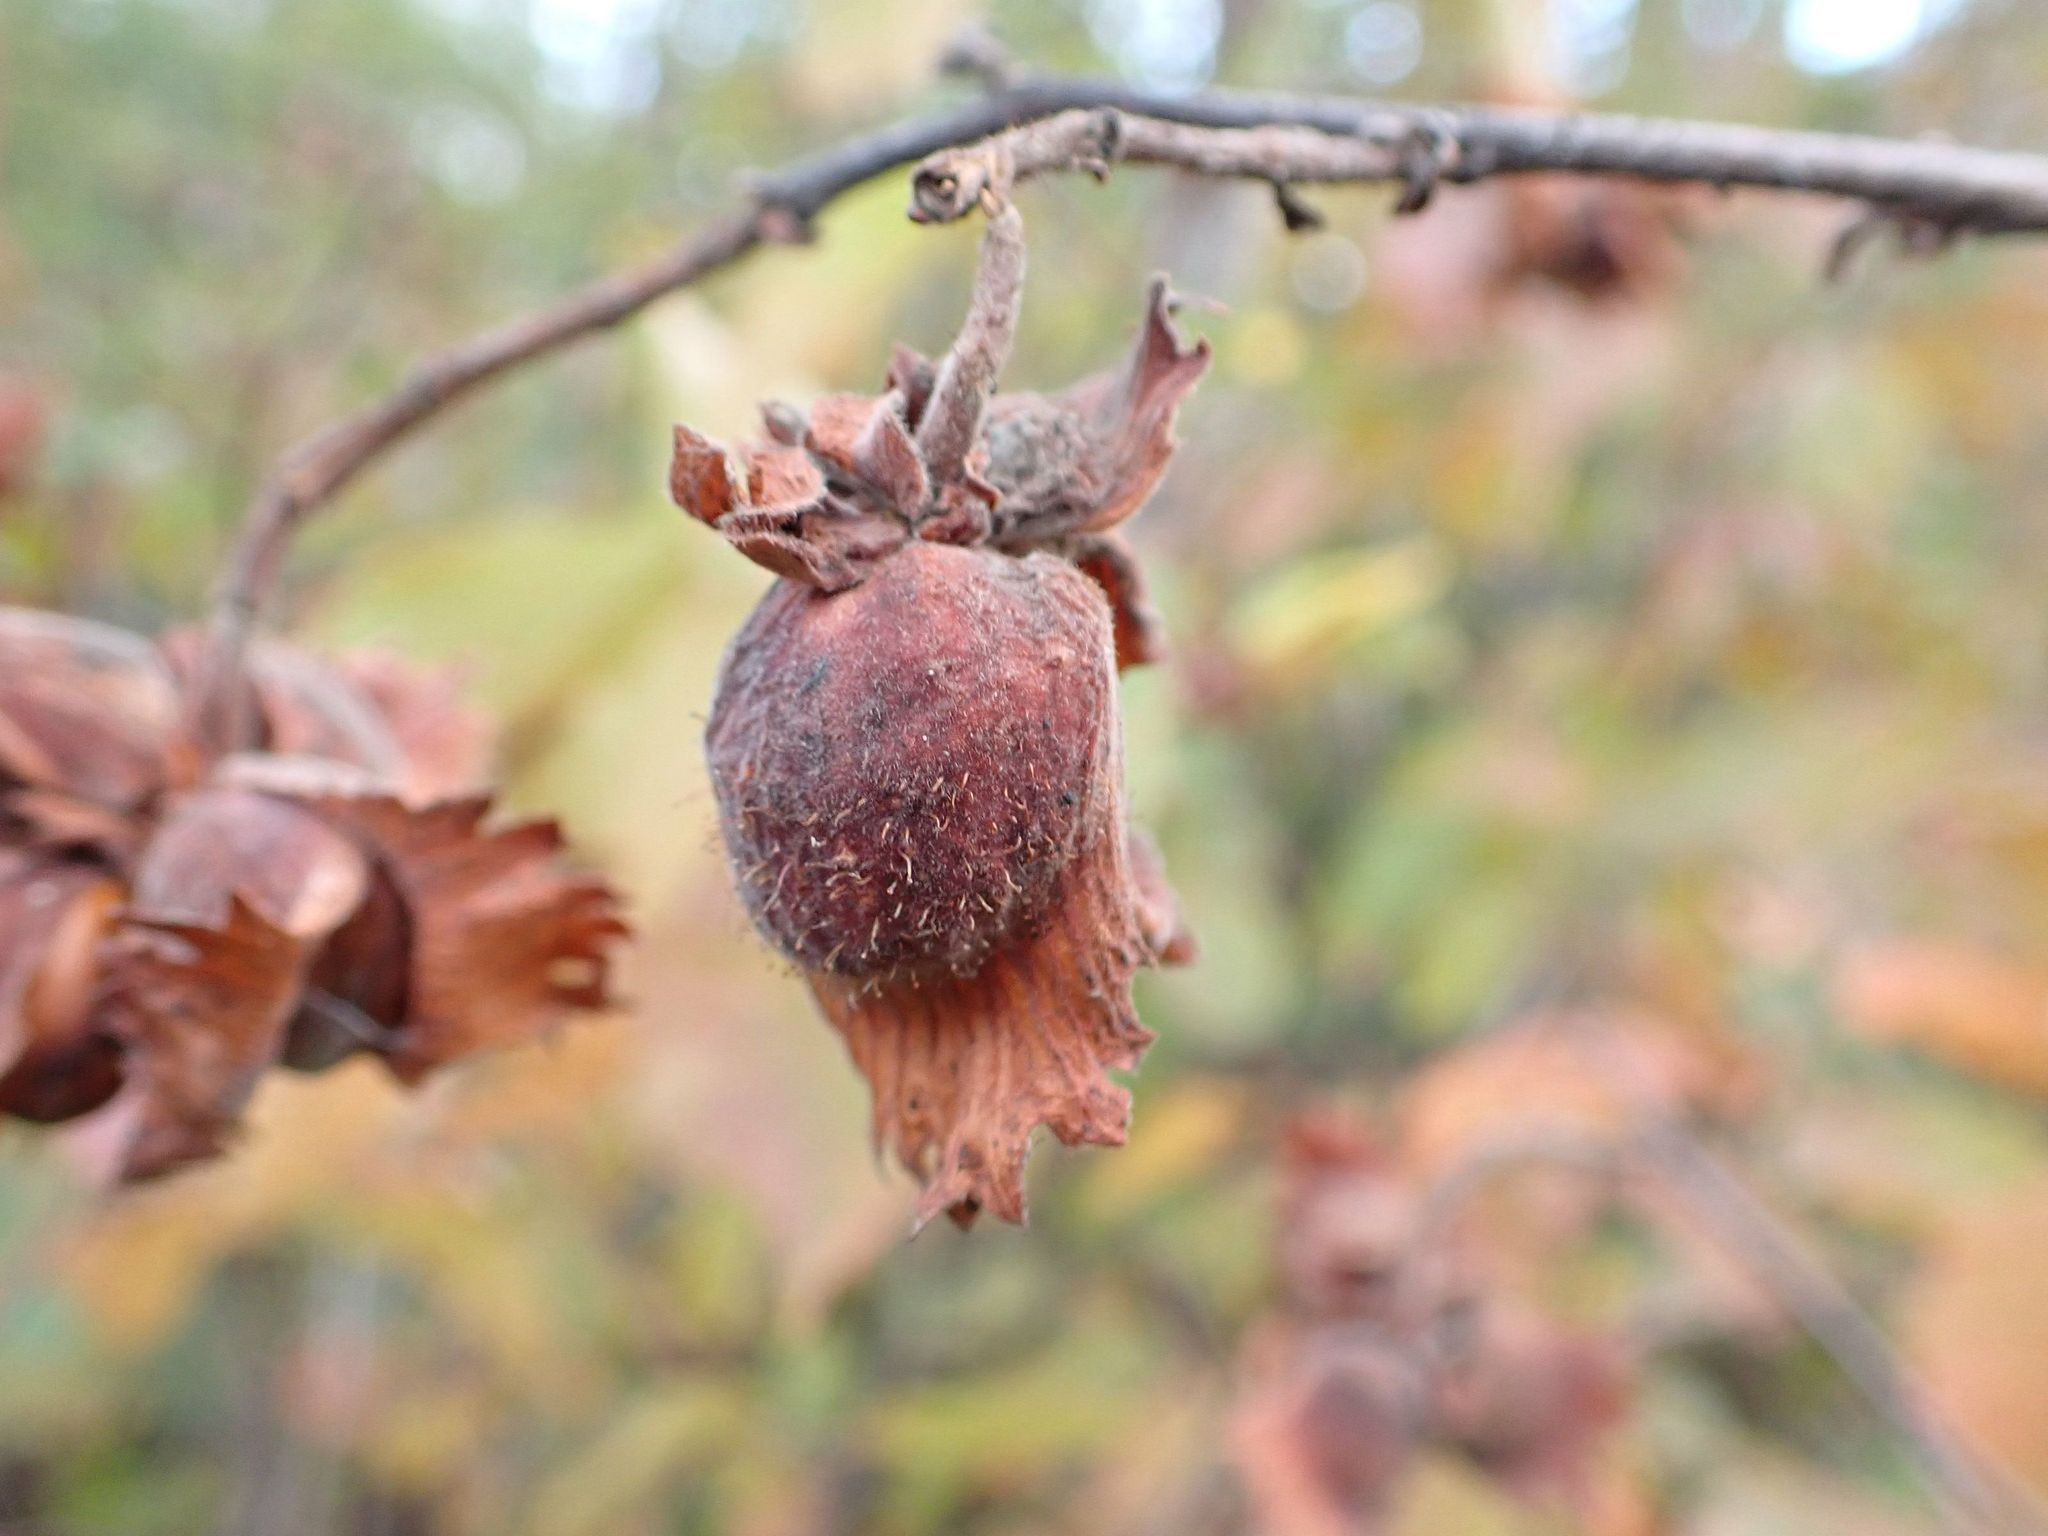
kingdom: Plantae
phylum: Tracheophyta
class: Magnoliopsida
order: Fagales
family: Betulaceae
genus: Corylus
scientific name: Corylus americana
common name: American hazel
